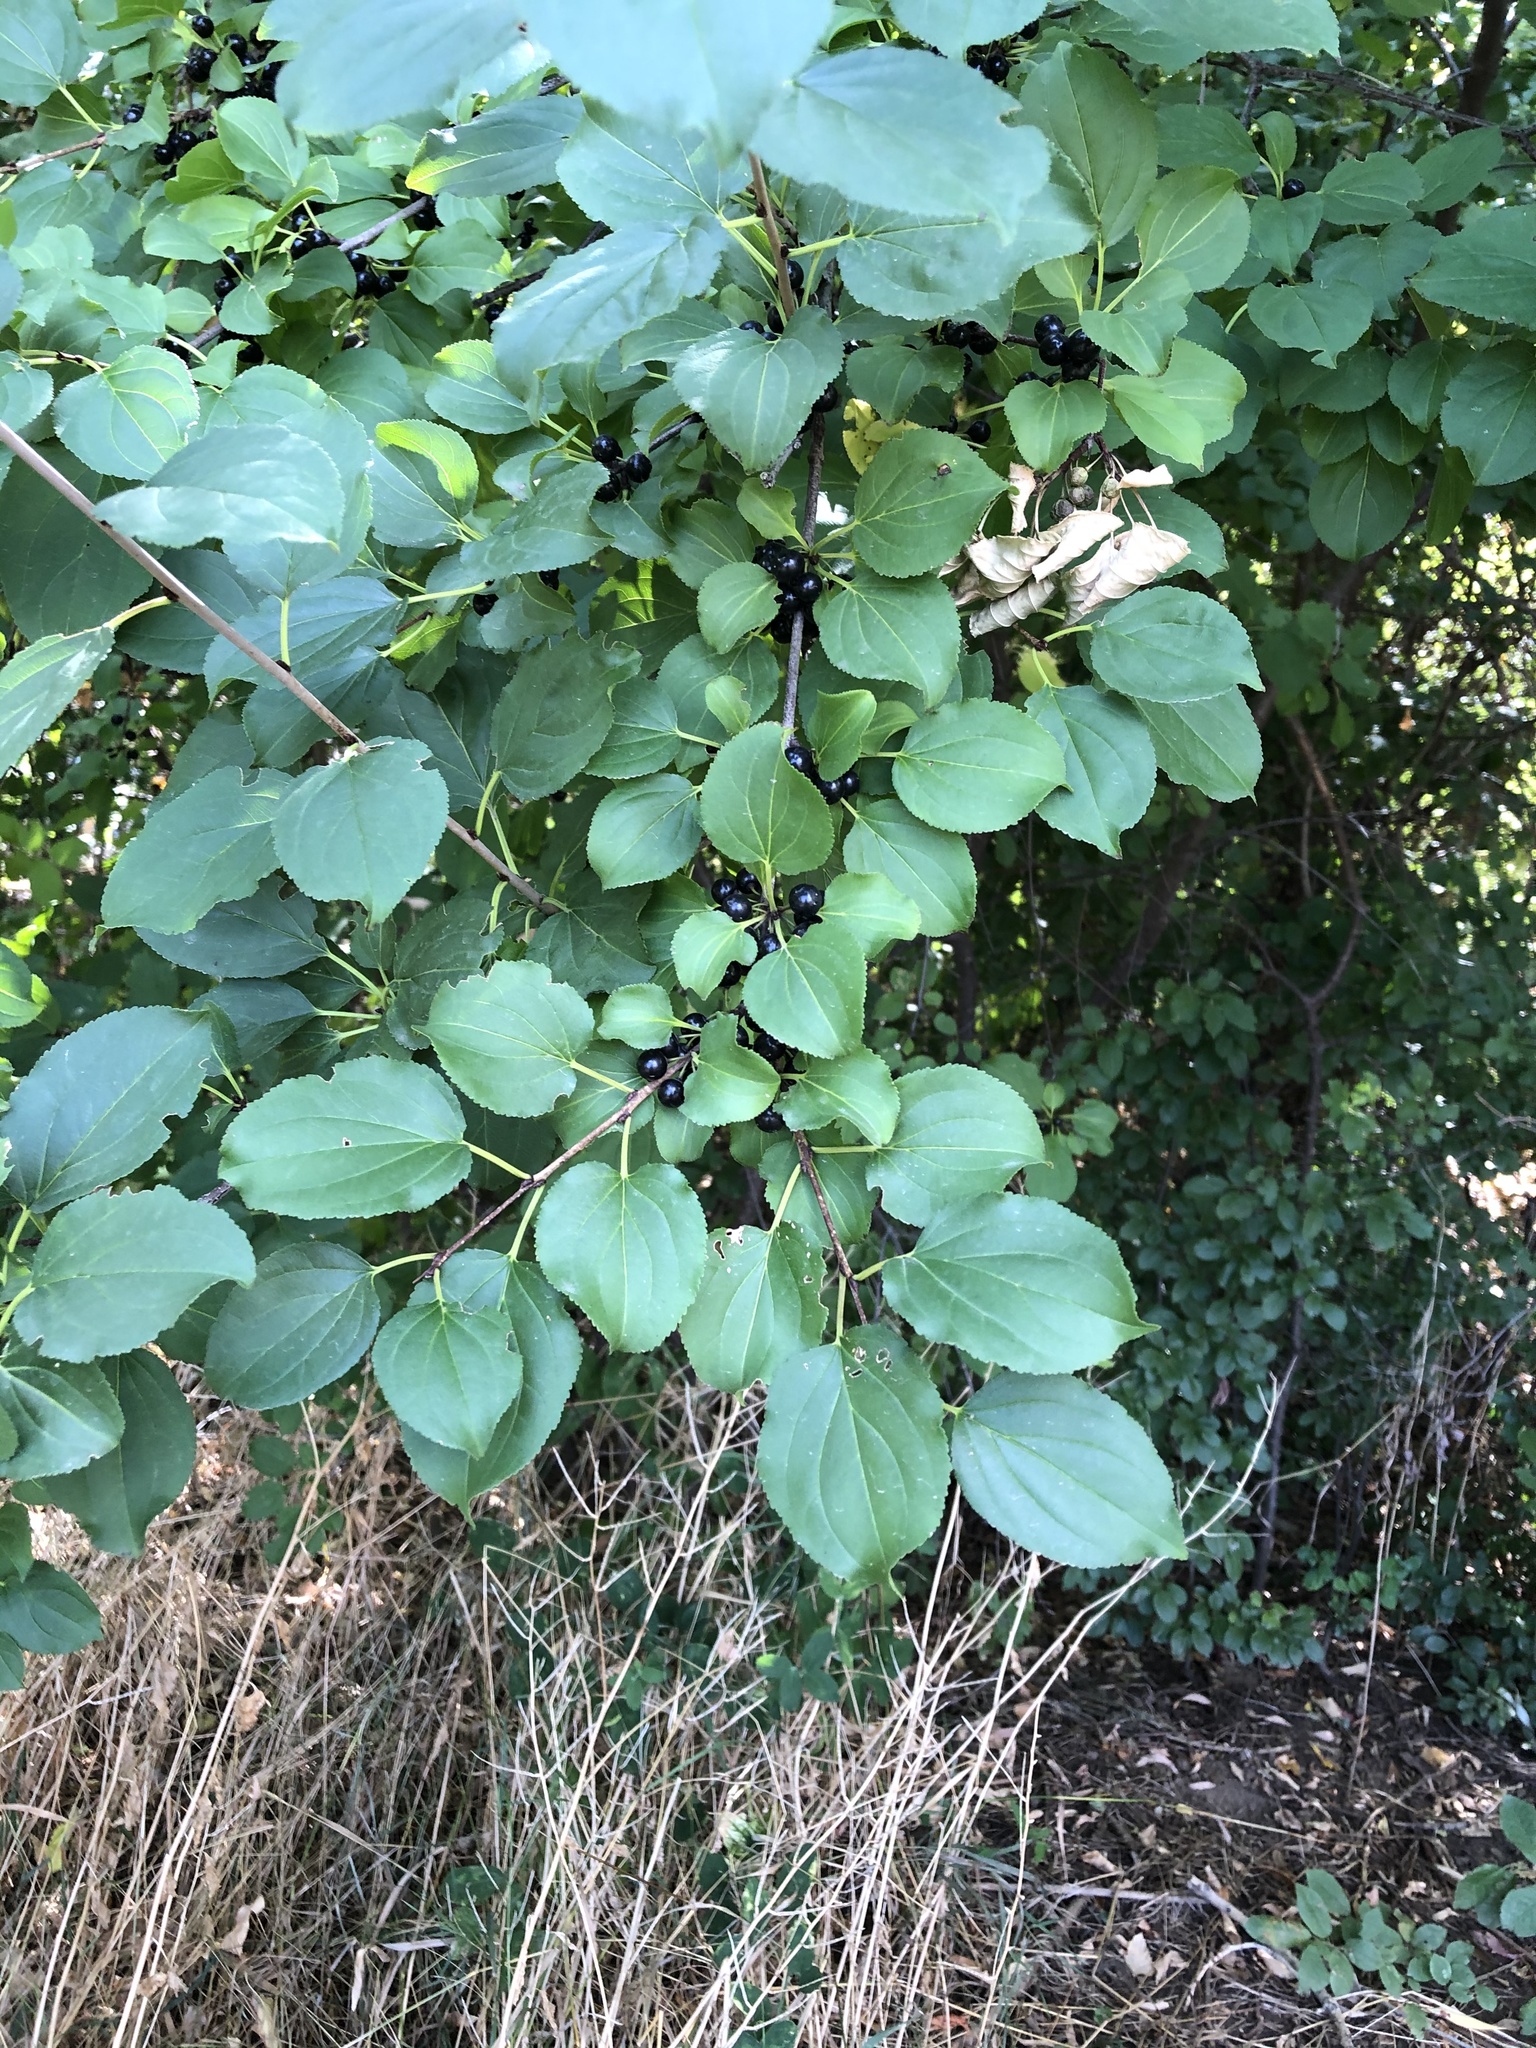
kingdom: Plantae
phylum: Tracheophyta
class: Magnoliopsida
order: Rosales
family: Rhamnaceae
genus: Rhamnus
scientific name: Rhamnus cathartica
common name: Common buckthorn
